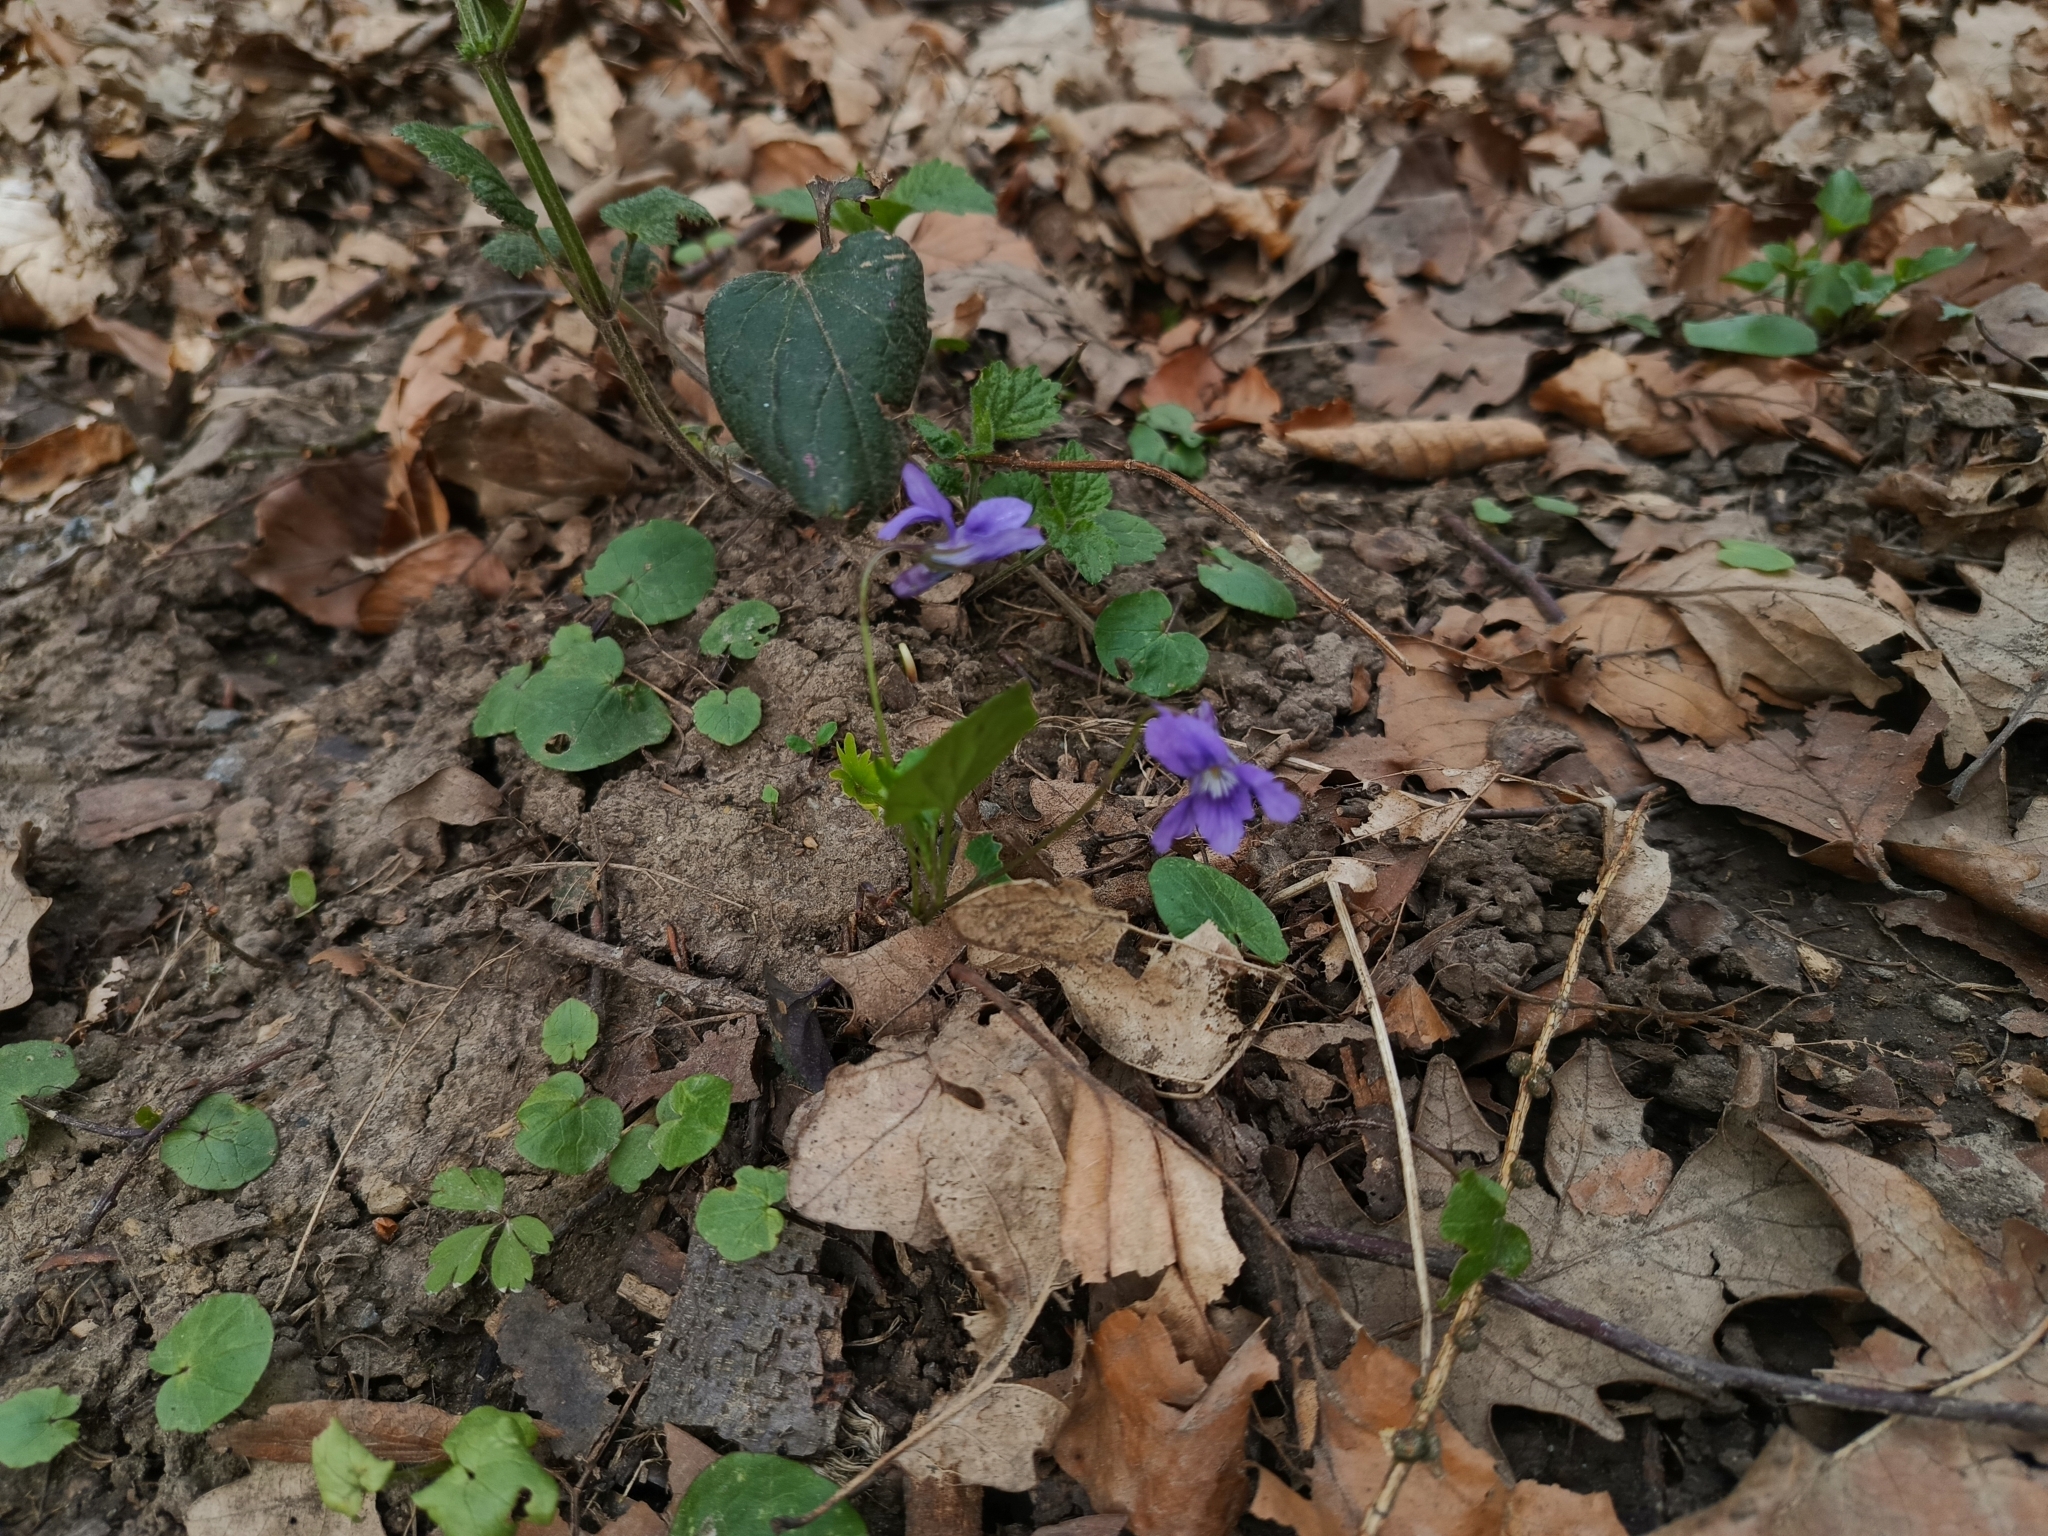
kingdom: Plantae
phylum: Tracheophyta
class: Magnoliopsida
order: Malpighiales
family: Violaceae
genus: Viola
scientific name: Viola reichenbachiana
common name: Early dog-violet
